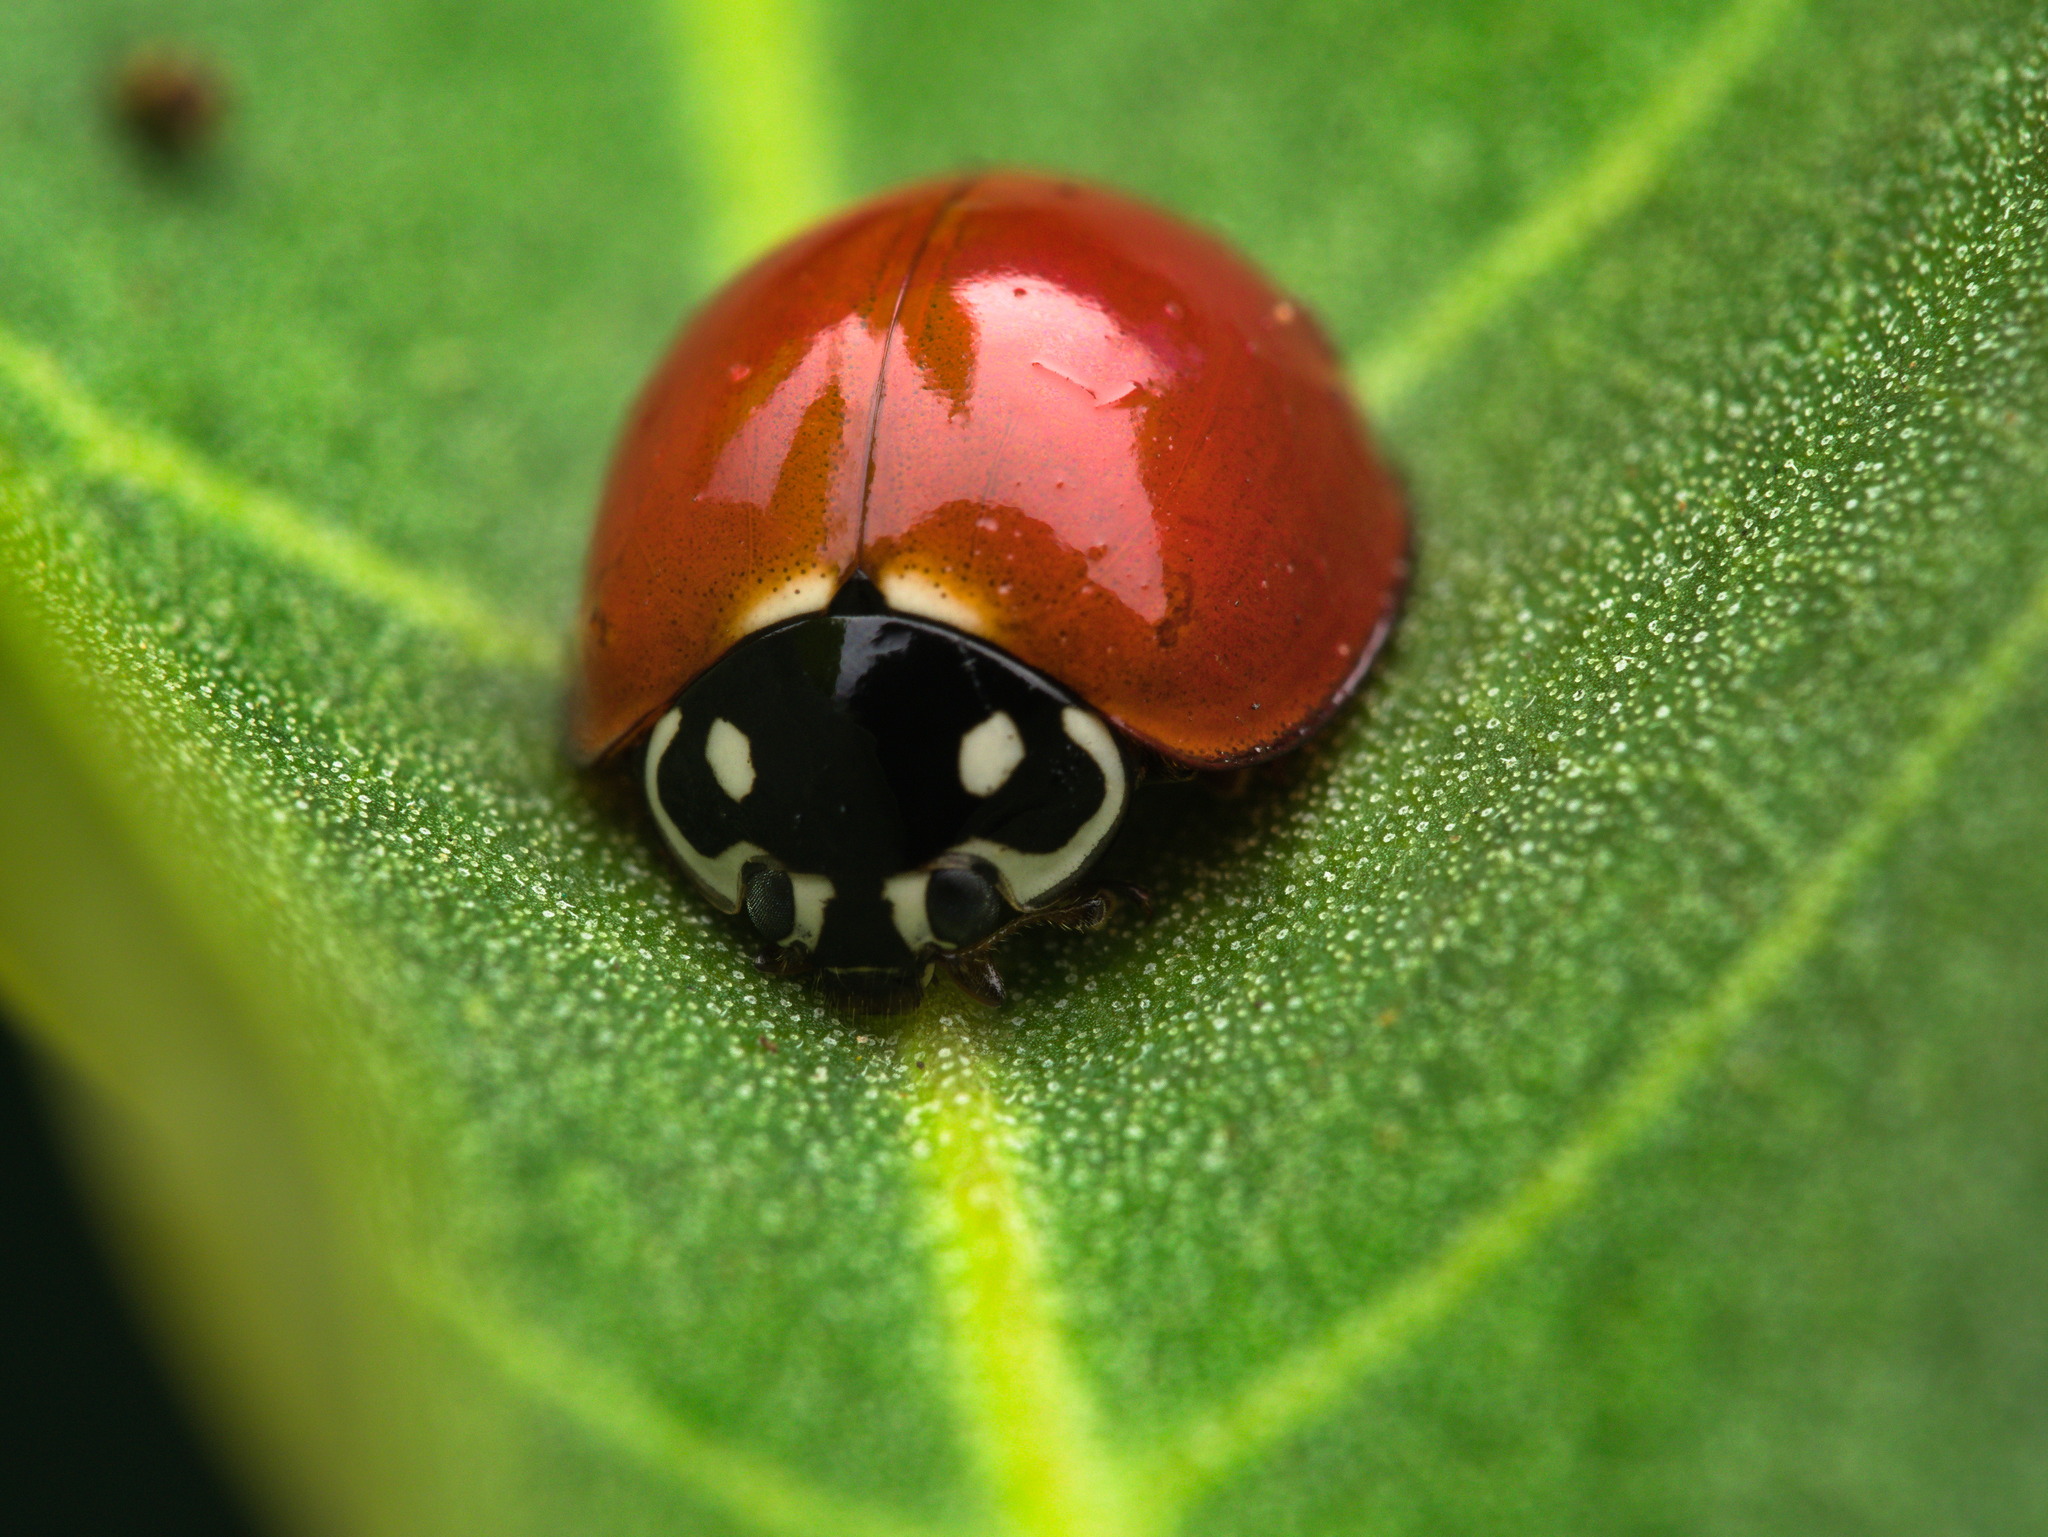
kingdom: Animalia
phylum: Arthropoda
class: Insecta
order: Coleoptera
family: Coccinellidae
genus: Cycloneda
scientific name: Cycloneda sanguinea
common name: Ladybird beetle
